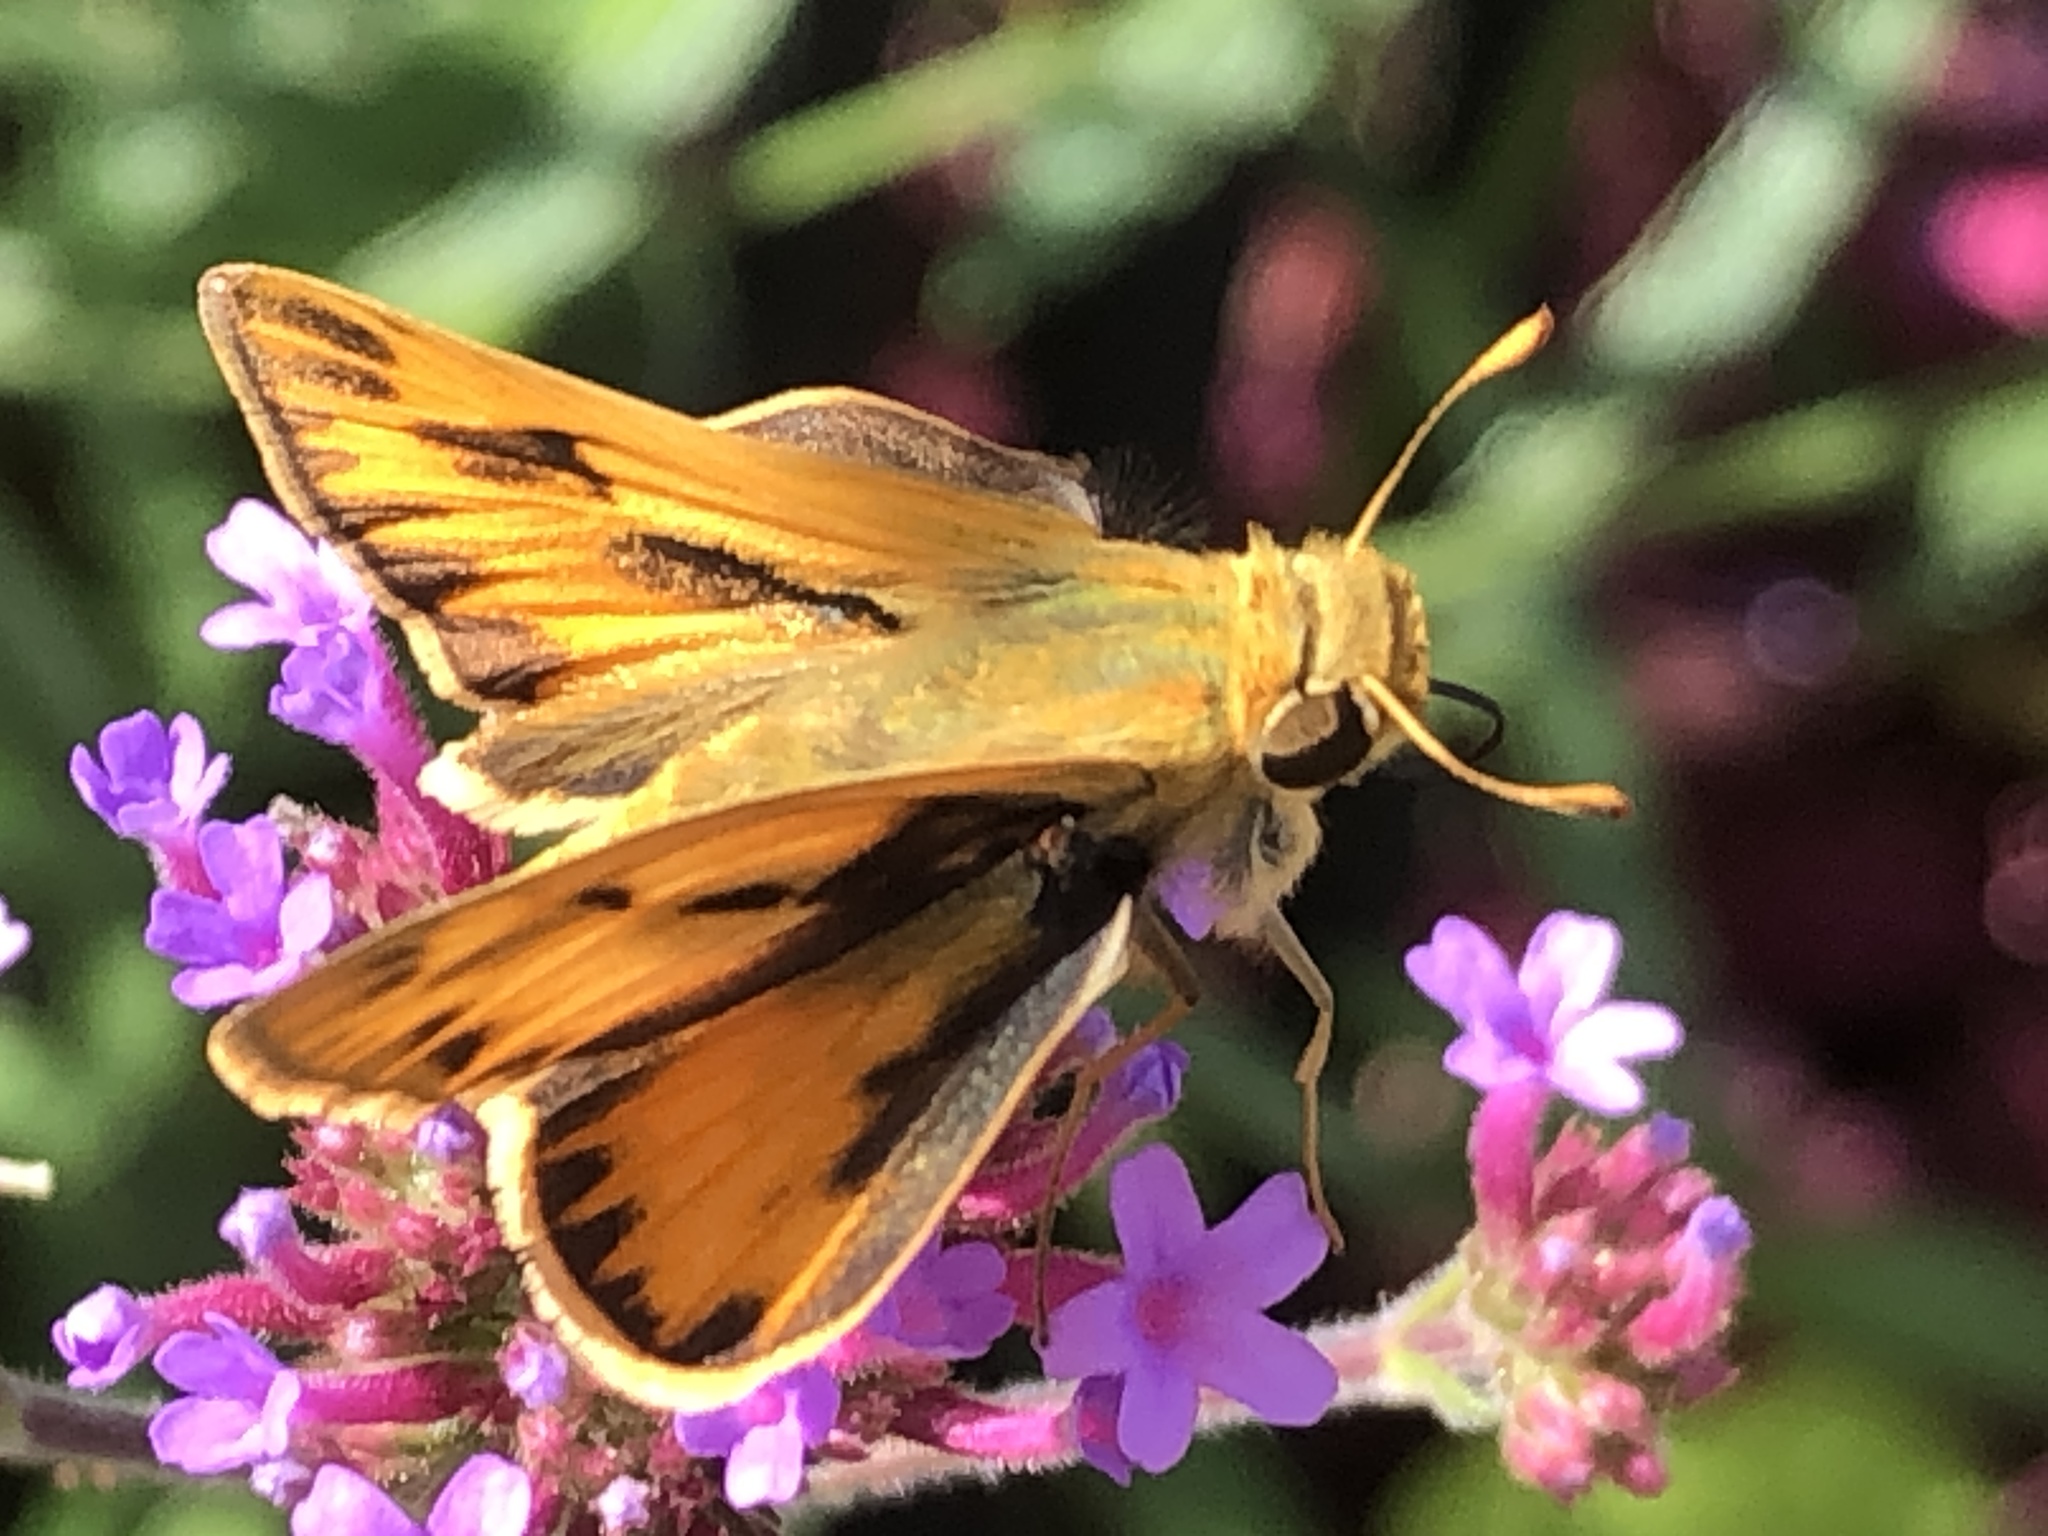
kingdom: Animalia
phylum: Arthropoda
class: Insecta
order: Lepidoptera
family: Hesperiidae
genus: Hylephila
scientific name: Hylephila phyleus
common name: Fiery skipper
